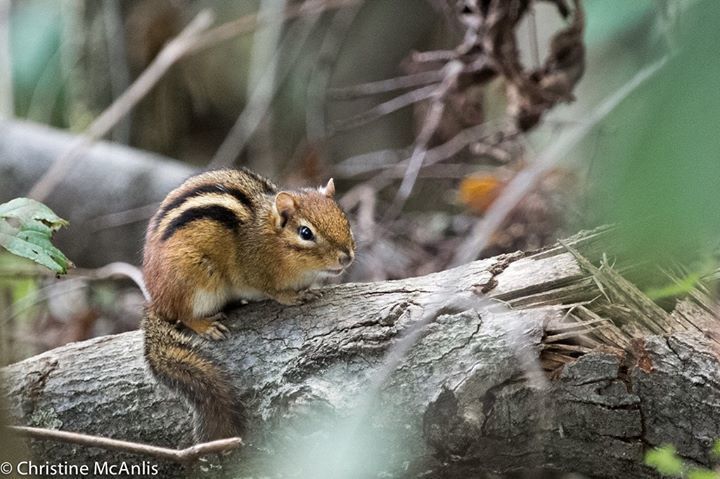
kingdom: Animalia
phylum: Chordata
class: Mammalia
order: Rodentia
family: Sciuridae
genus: Tamias
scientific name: Tamias striatus
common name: Eastern chipmunk
